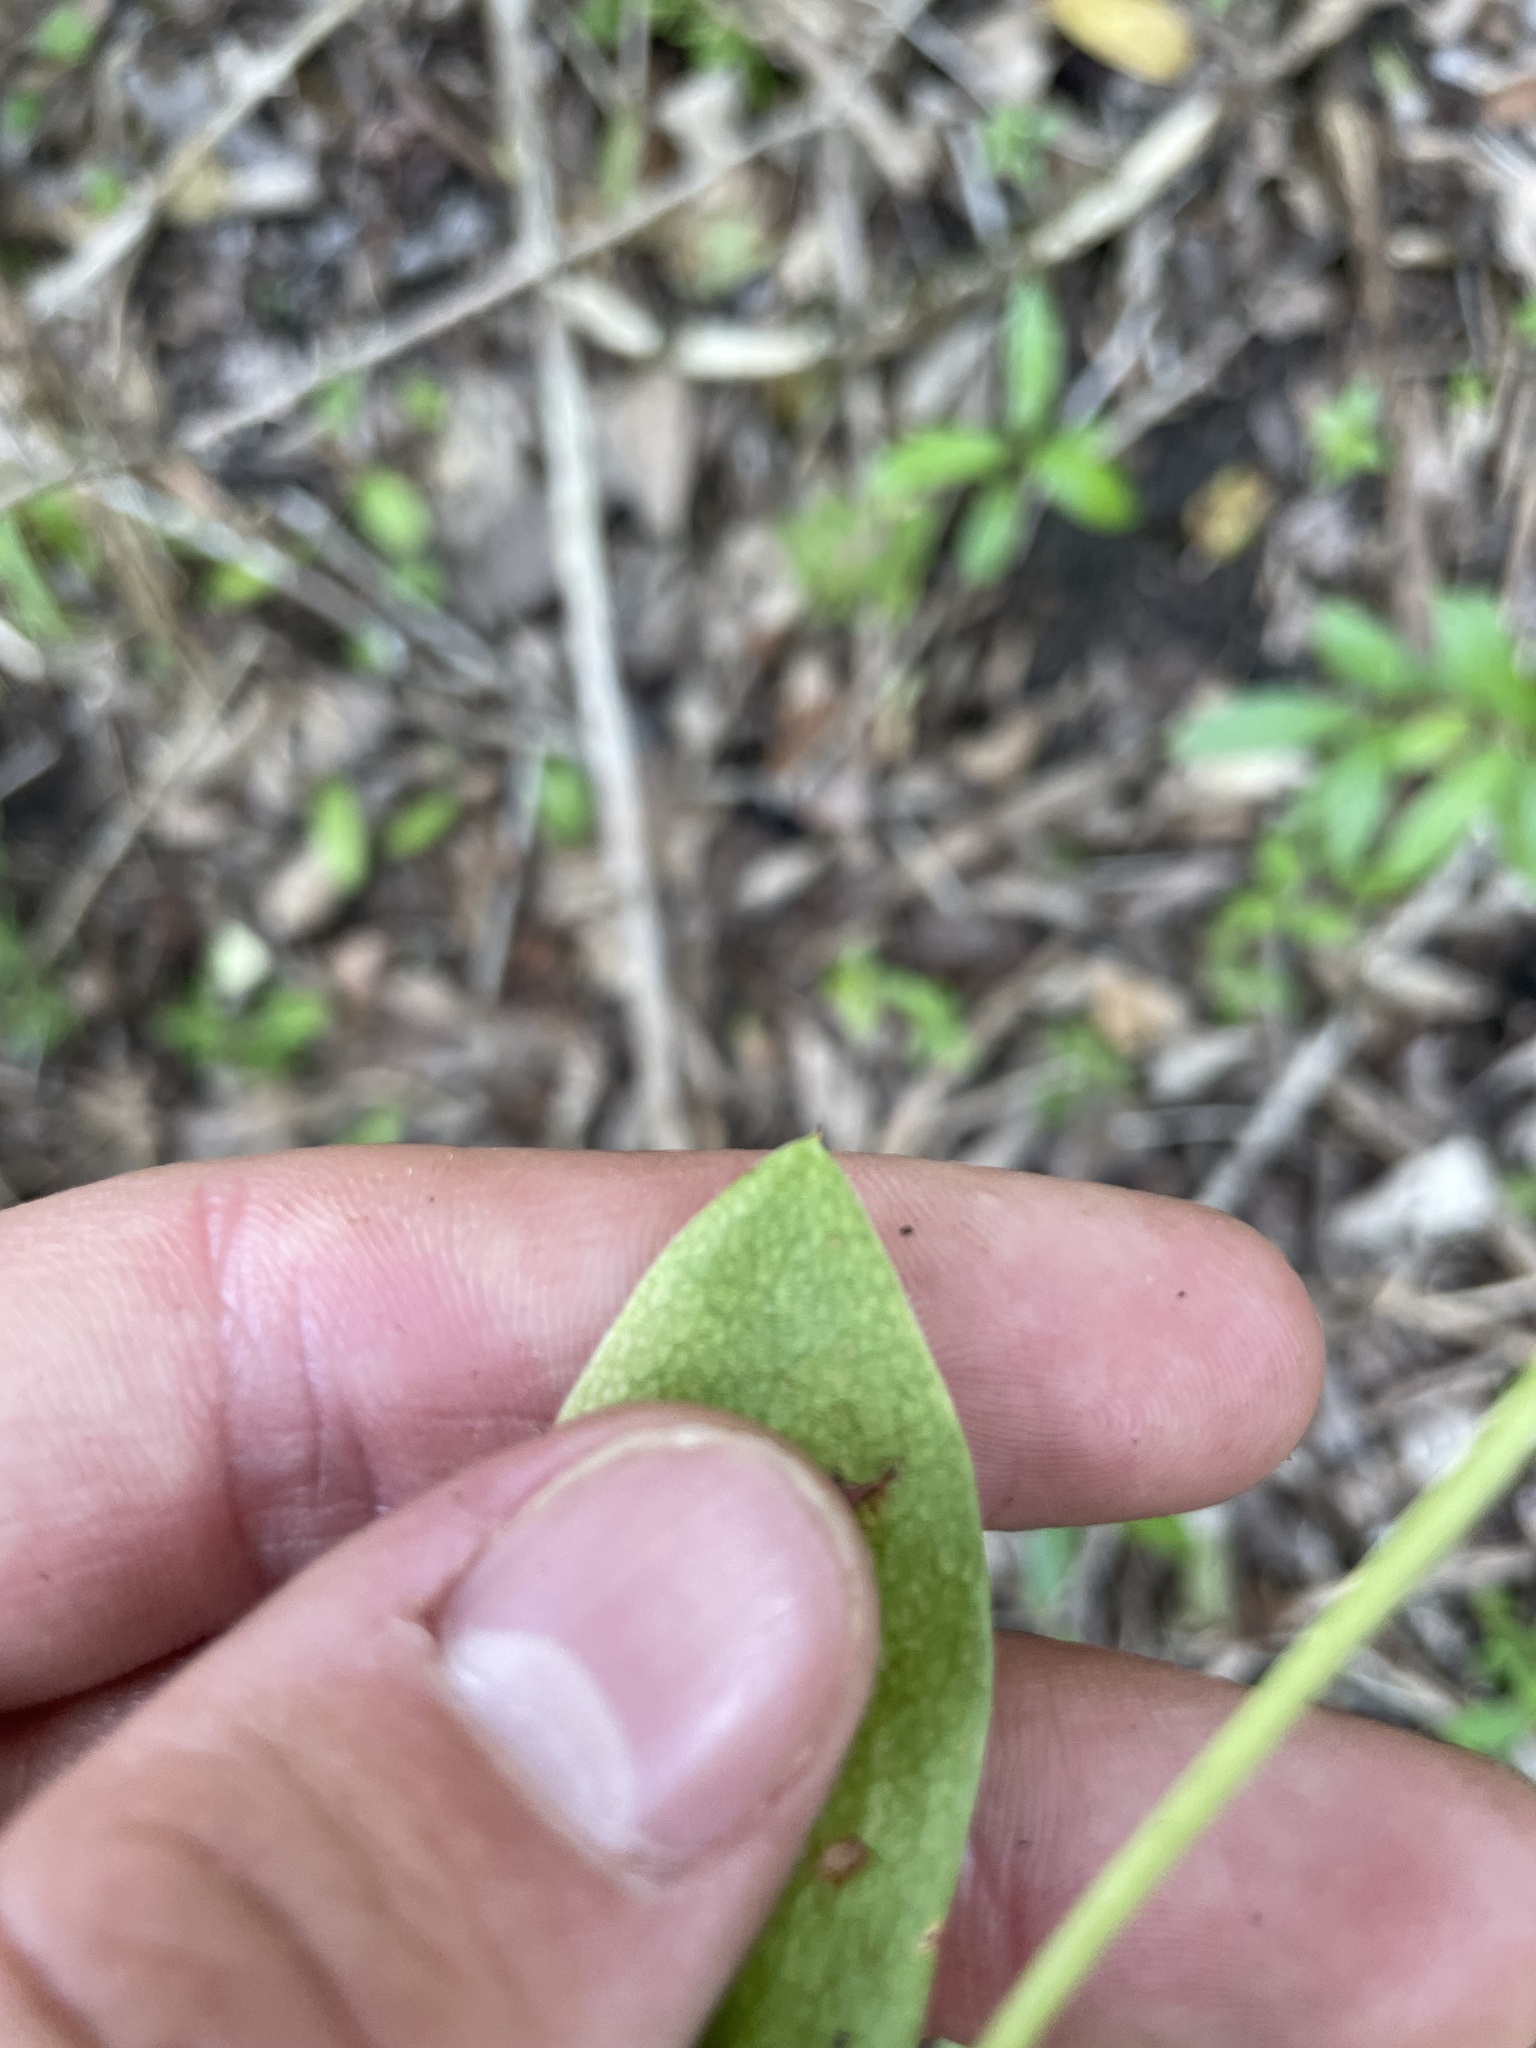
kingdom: Plantae
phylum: Tracheophyta
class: Polypodiopsida
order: Ophioglossales
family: Ophioglossaceae
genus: Ophioglossum
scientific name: Ophioglossum engelmannii
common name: Limestone adder's-tongue
